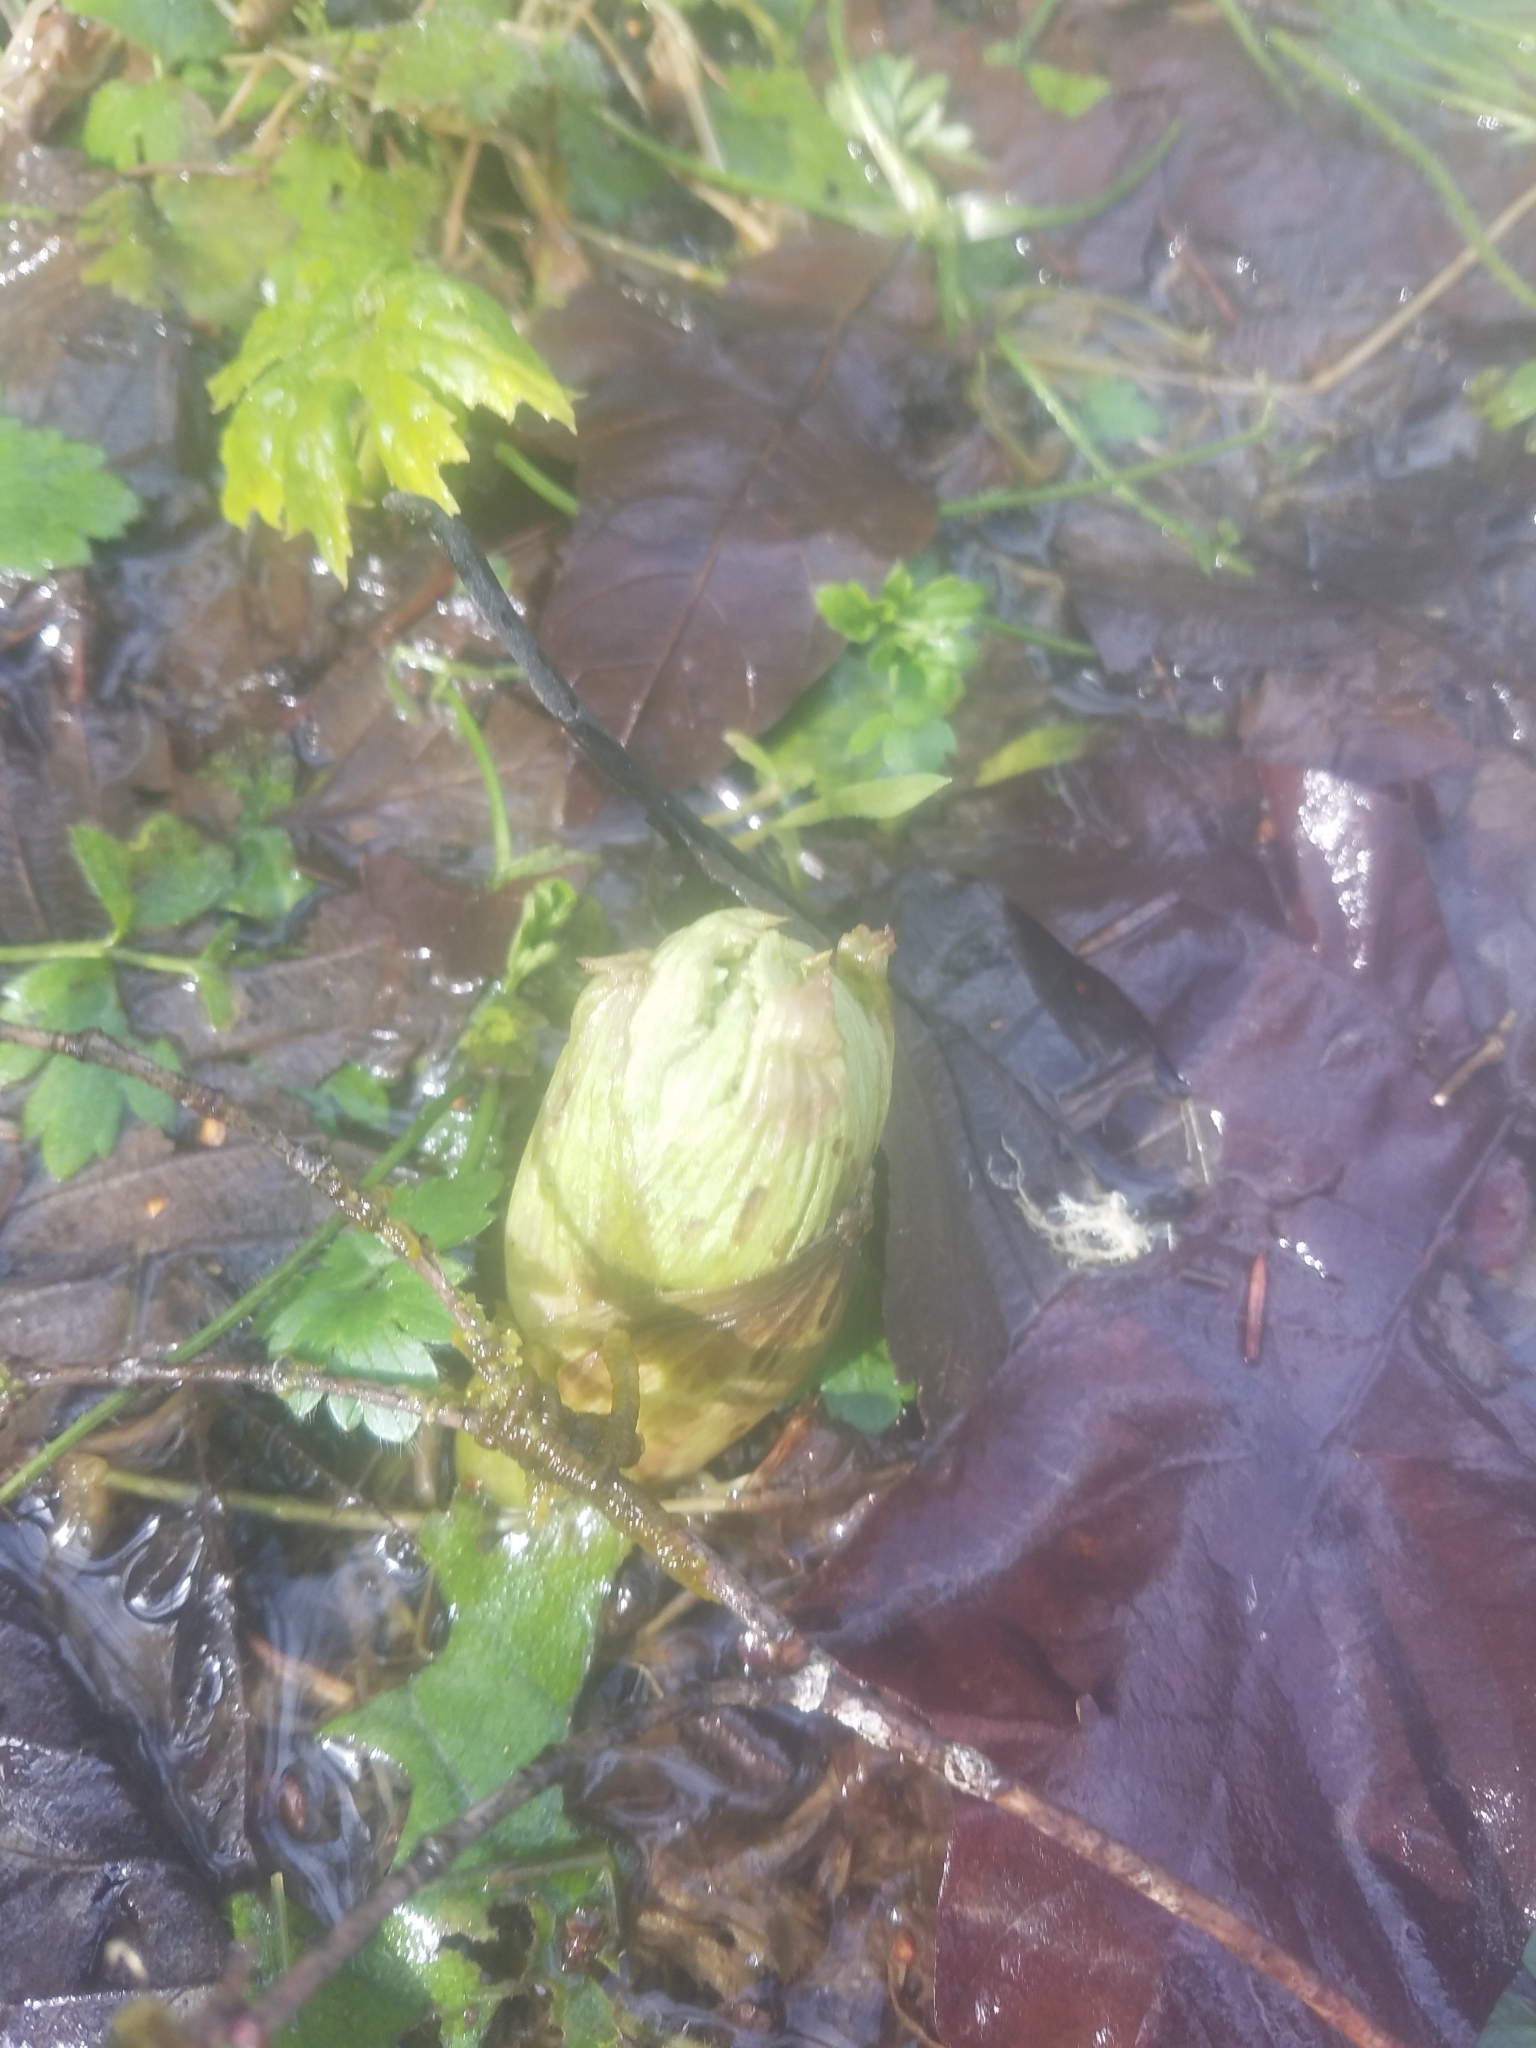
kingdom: Plantae
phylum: Tracheophyta
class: Magnoliopsida
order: Asterales
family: Asteraceae
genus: Petasites
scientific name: Petasites frigidus
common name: Arctic butterbur
